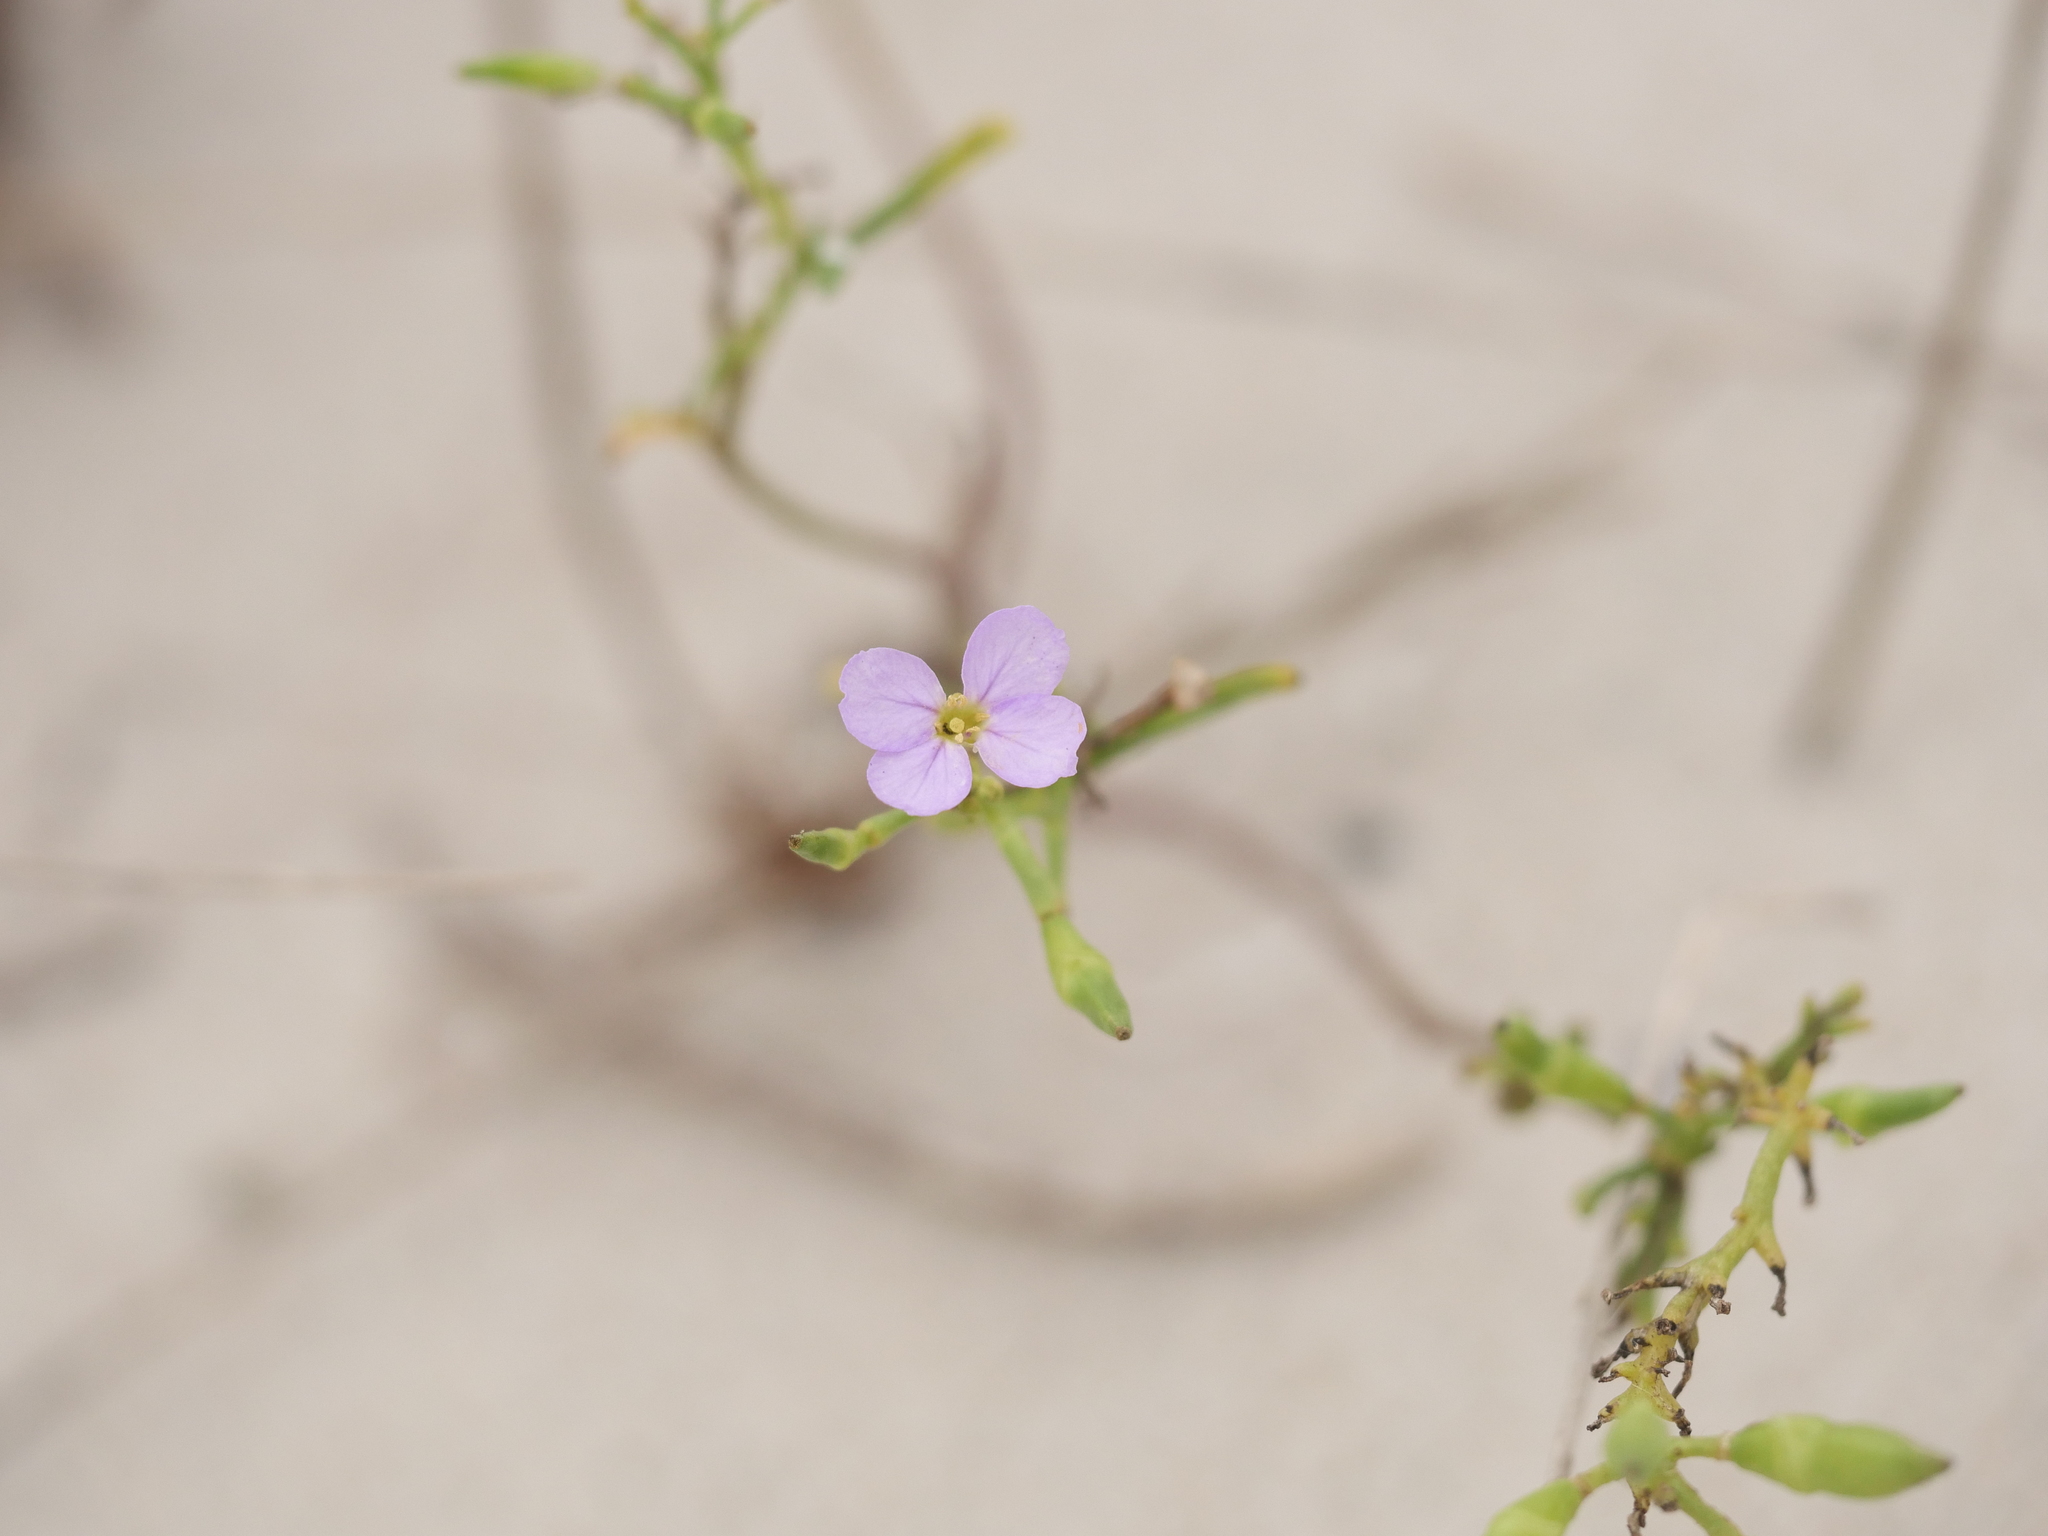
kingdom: Plantae
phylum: Tracheophyta
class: Magnoliopsida
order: Brassicales
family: Brassicaceae
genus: Cakile
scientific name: Cakile maritima
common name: Sea rocket
